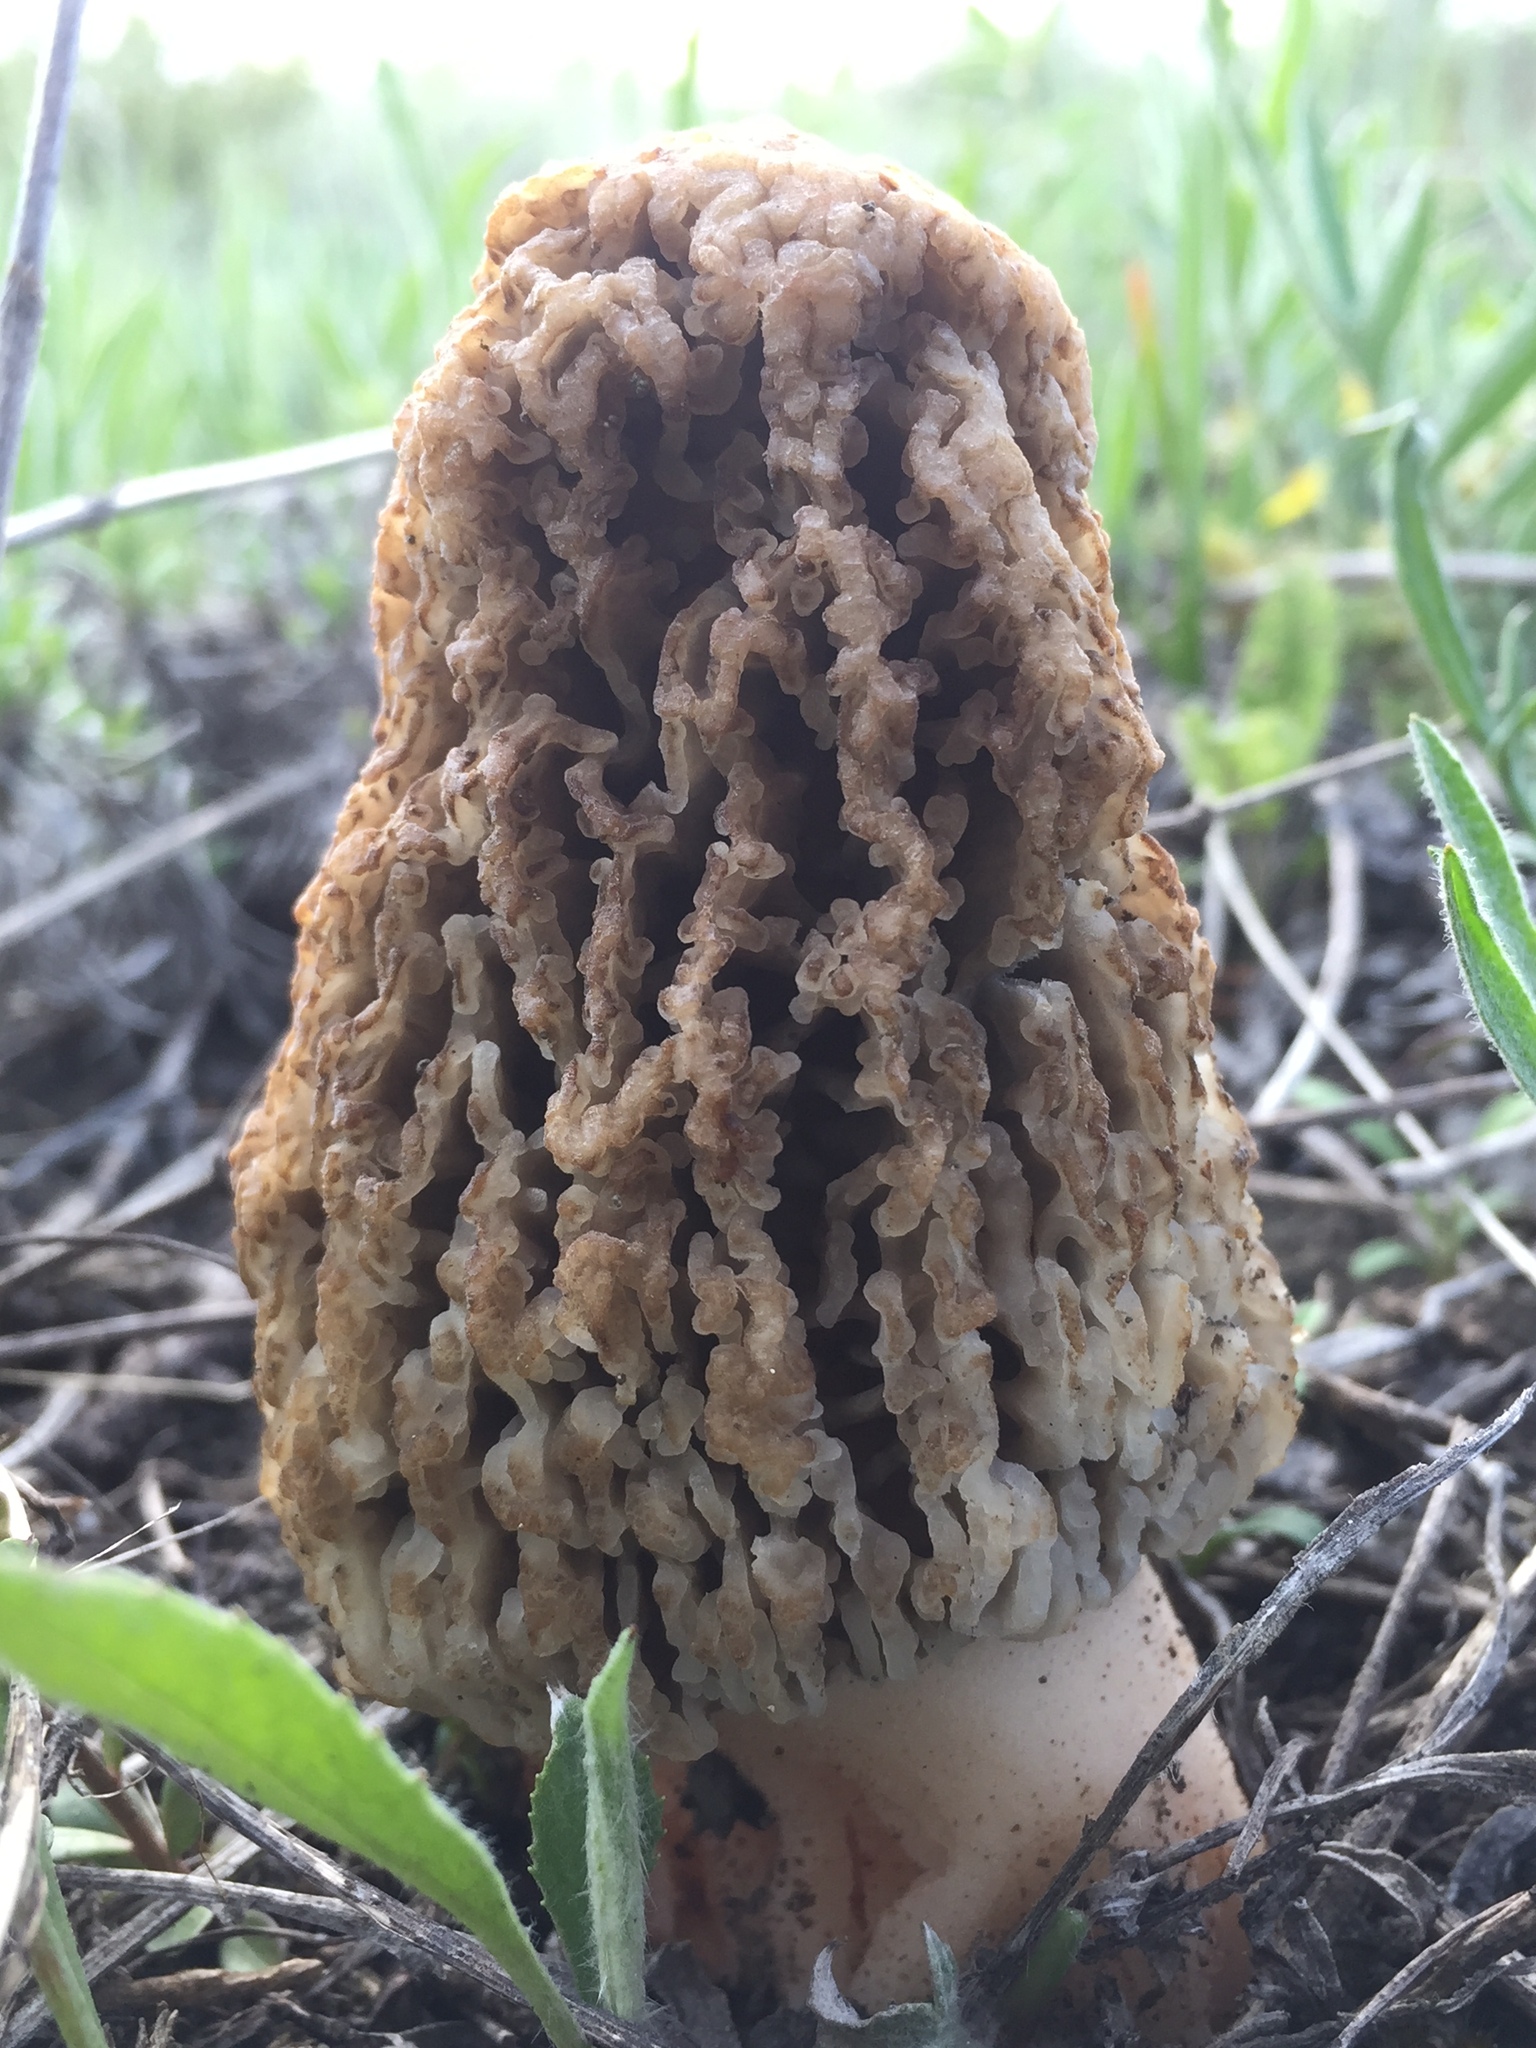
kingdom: Fungi
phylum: Ascomycota
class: Pezizomycetes
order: Pezizales
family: Morchellaceae
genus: Morchella
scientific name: Morchella steppicola
